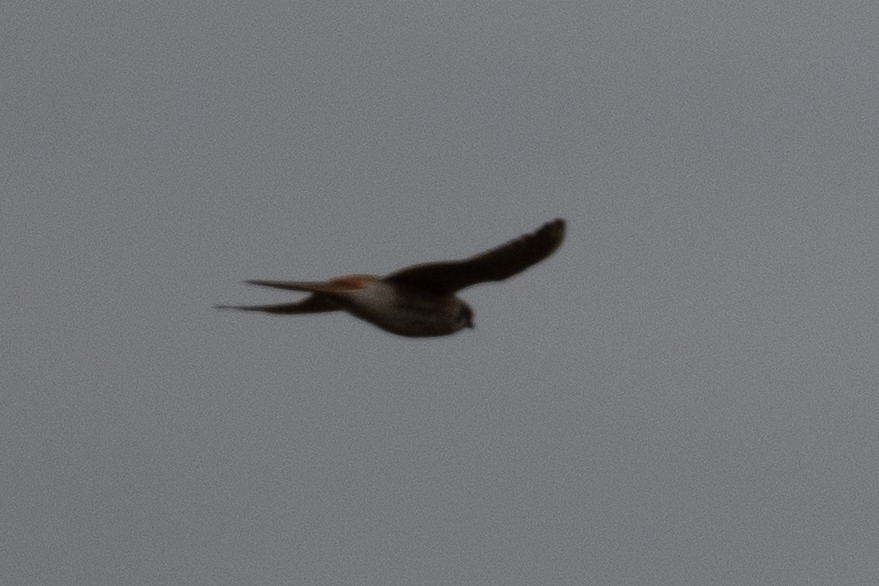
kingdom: Animalia
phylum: Chordata
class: Aves
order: Falconiformes
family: Falconidae
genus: Falco
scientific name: Falco sparverius
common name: American kestrel
